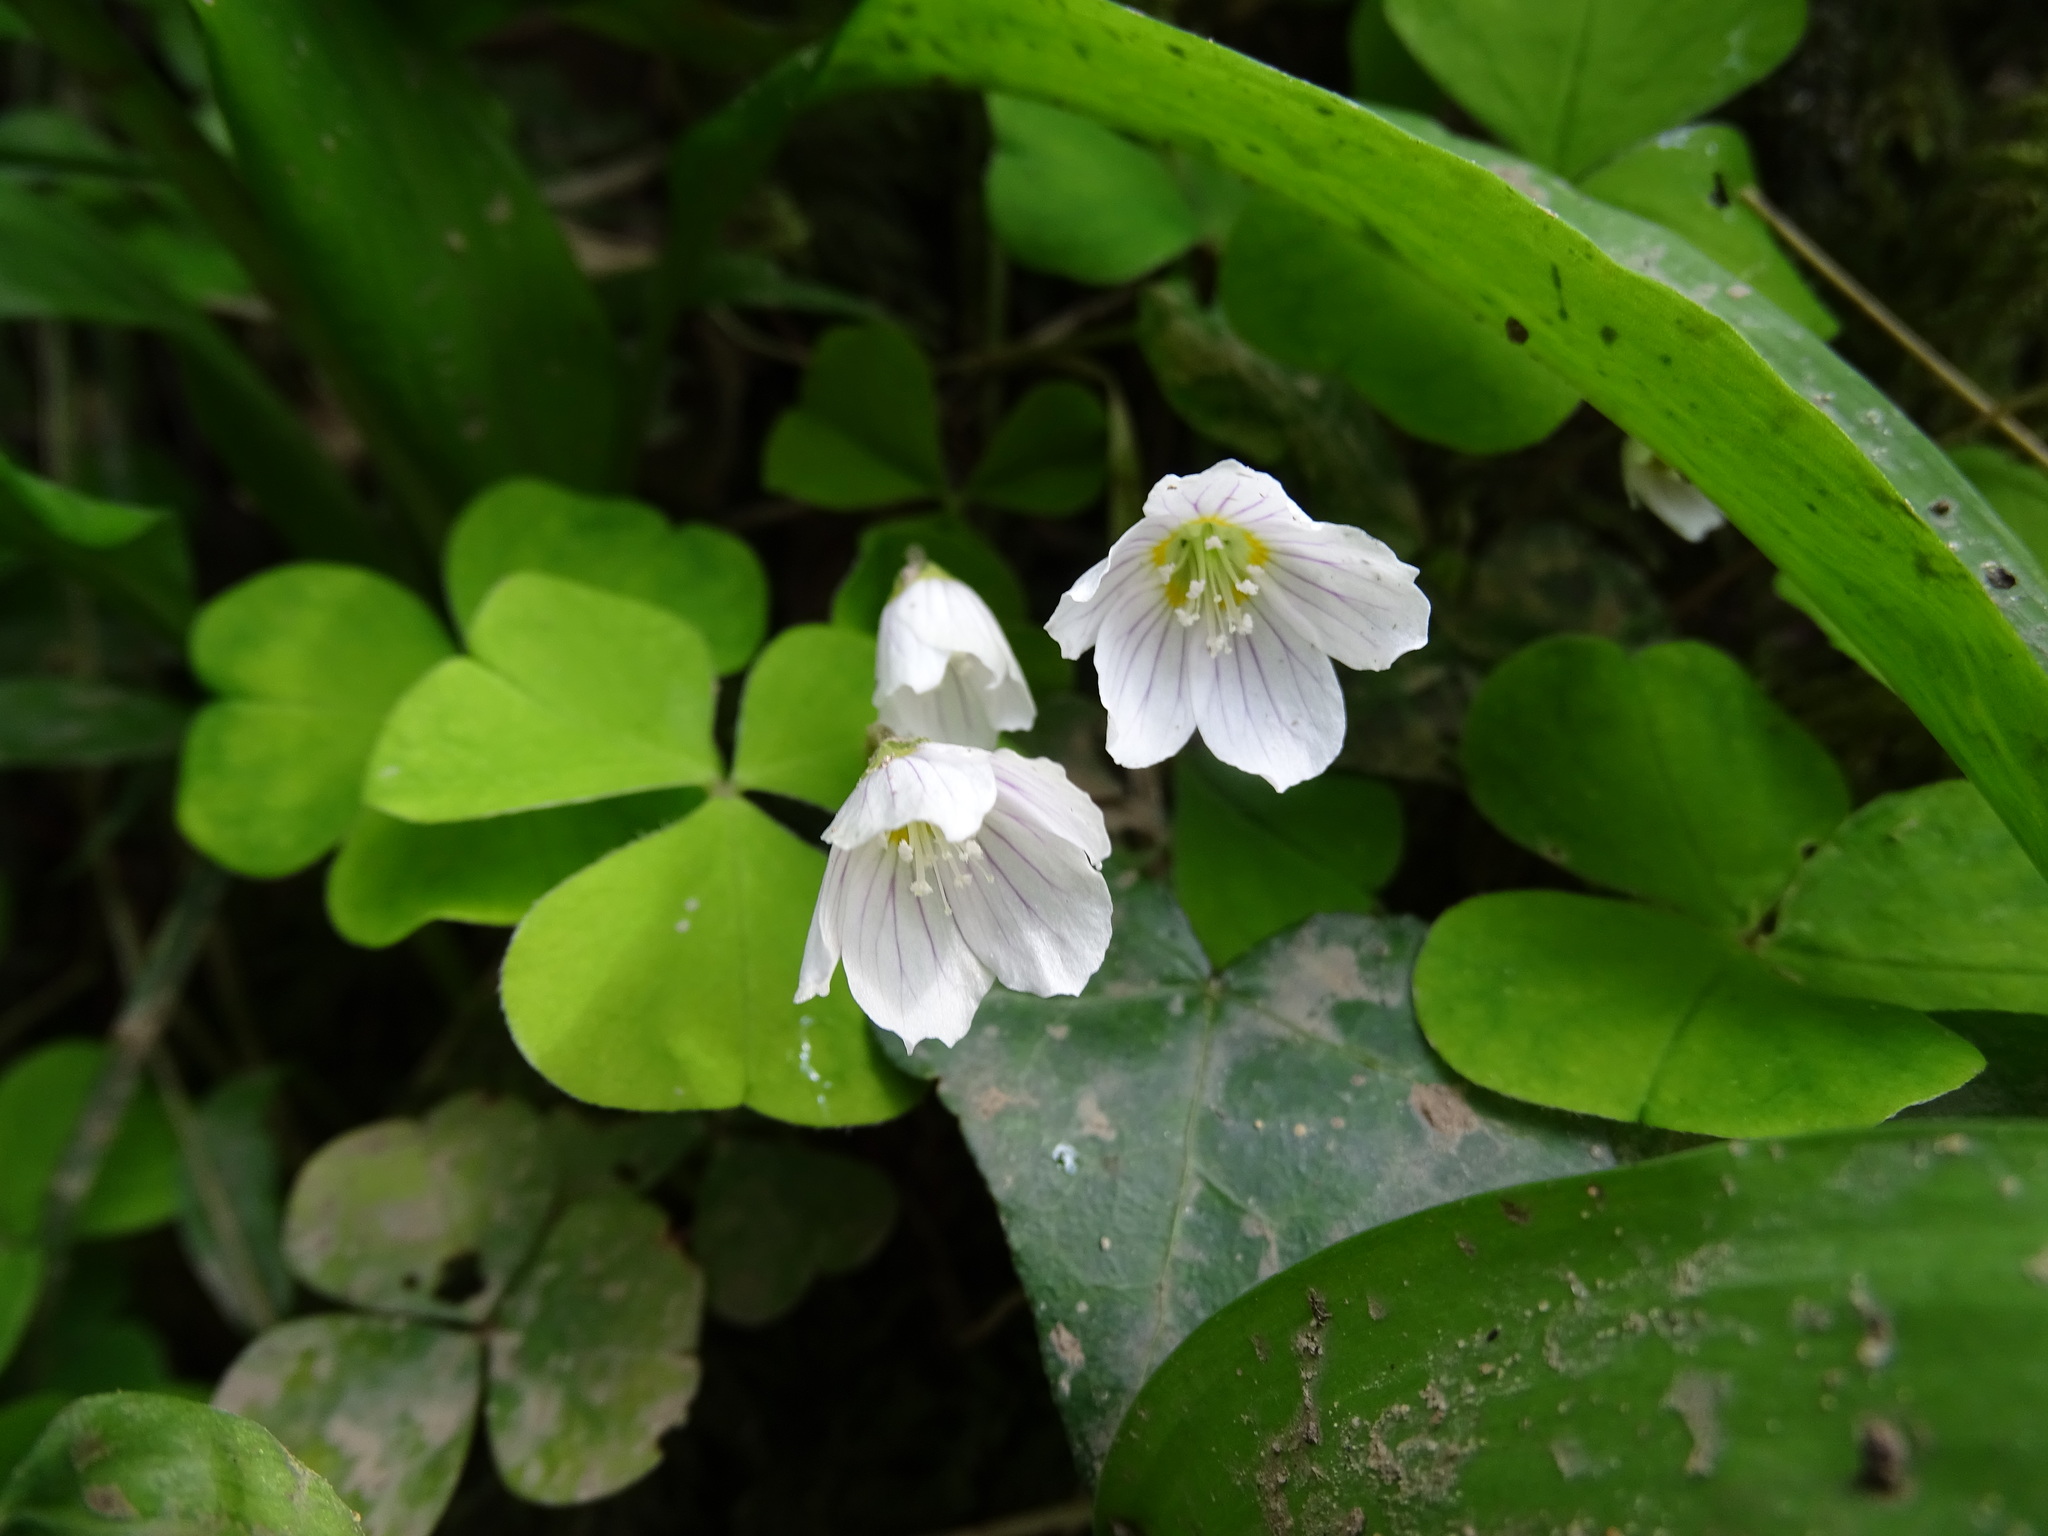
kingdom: Plantae
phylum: Tracheophyta
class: Magnoliopsida
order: Oxalidales
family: Oxalidaceae
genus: Oxalis
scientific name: Oxalis acetosella
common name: Wood-sorrel
